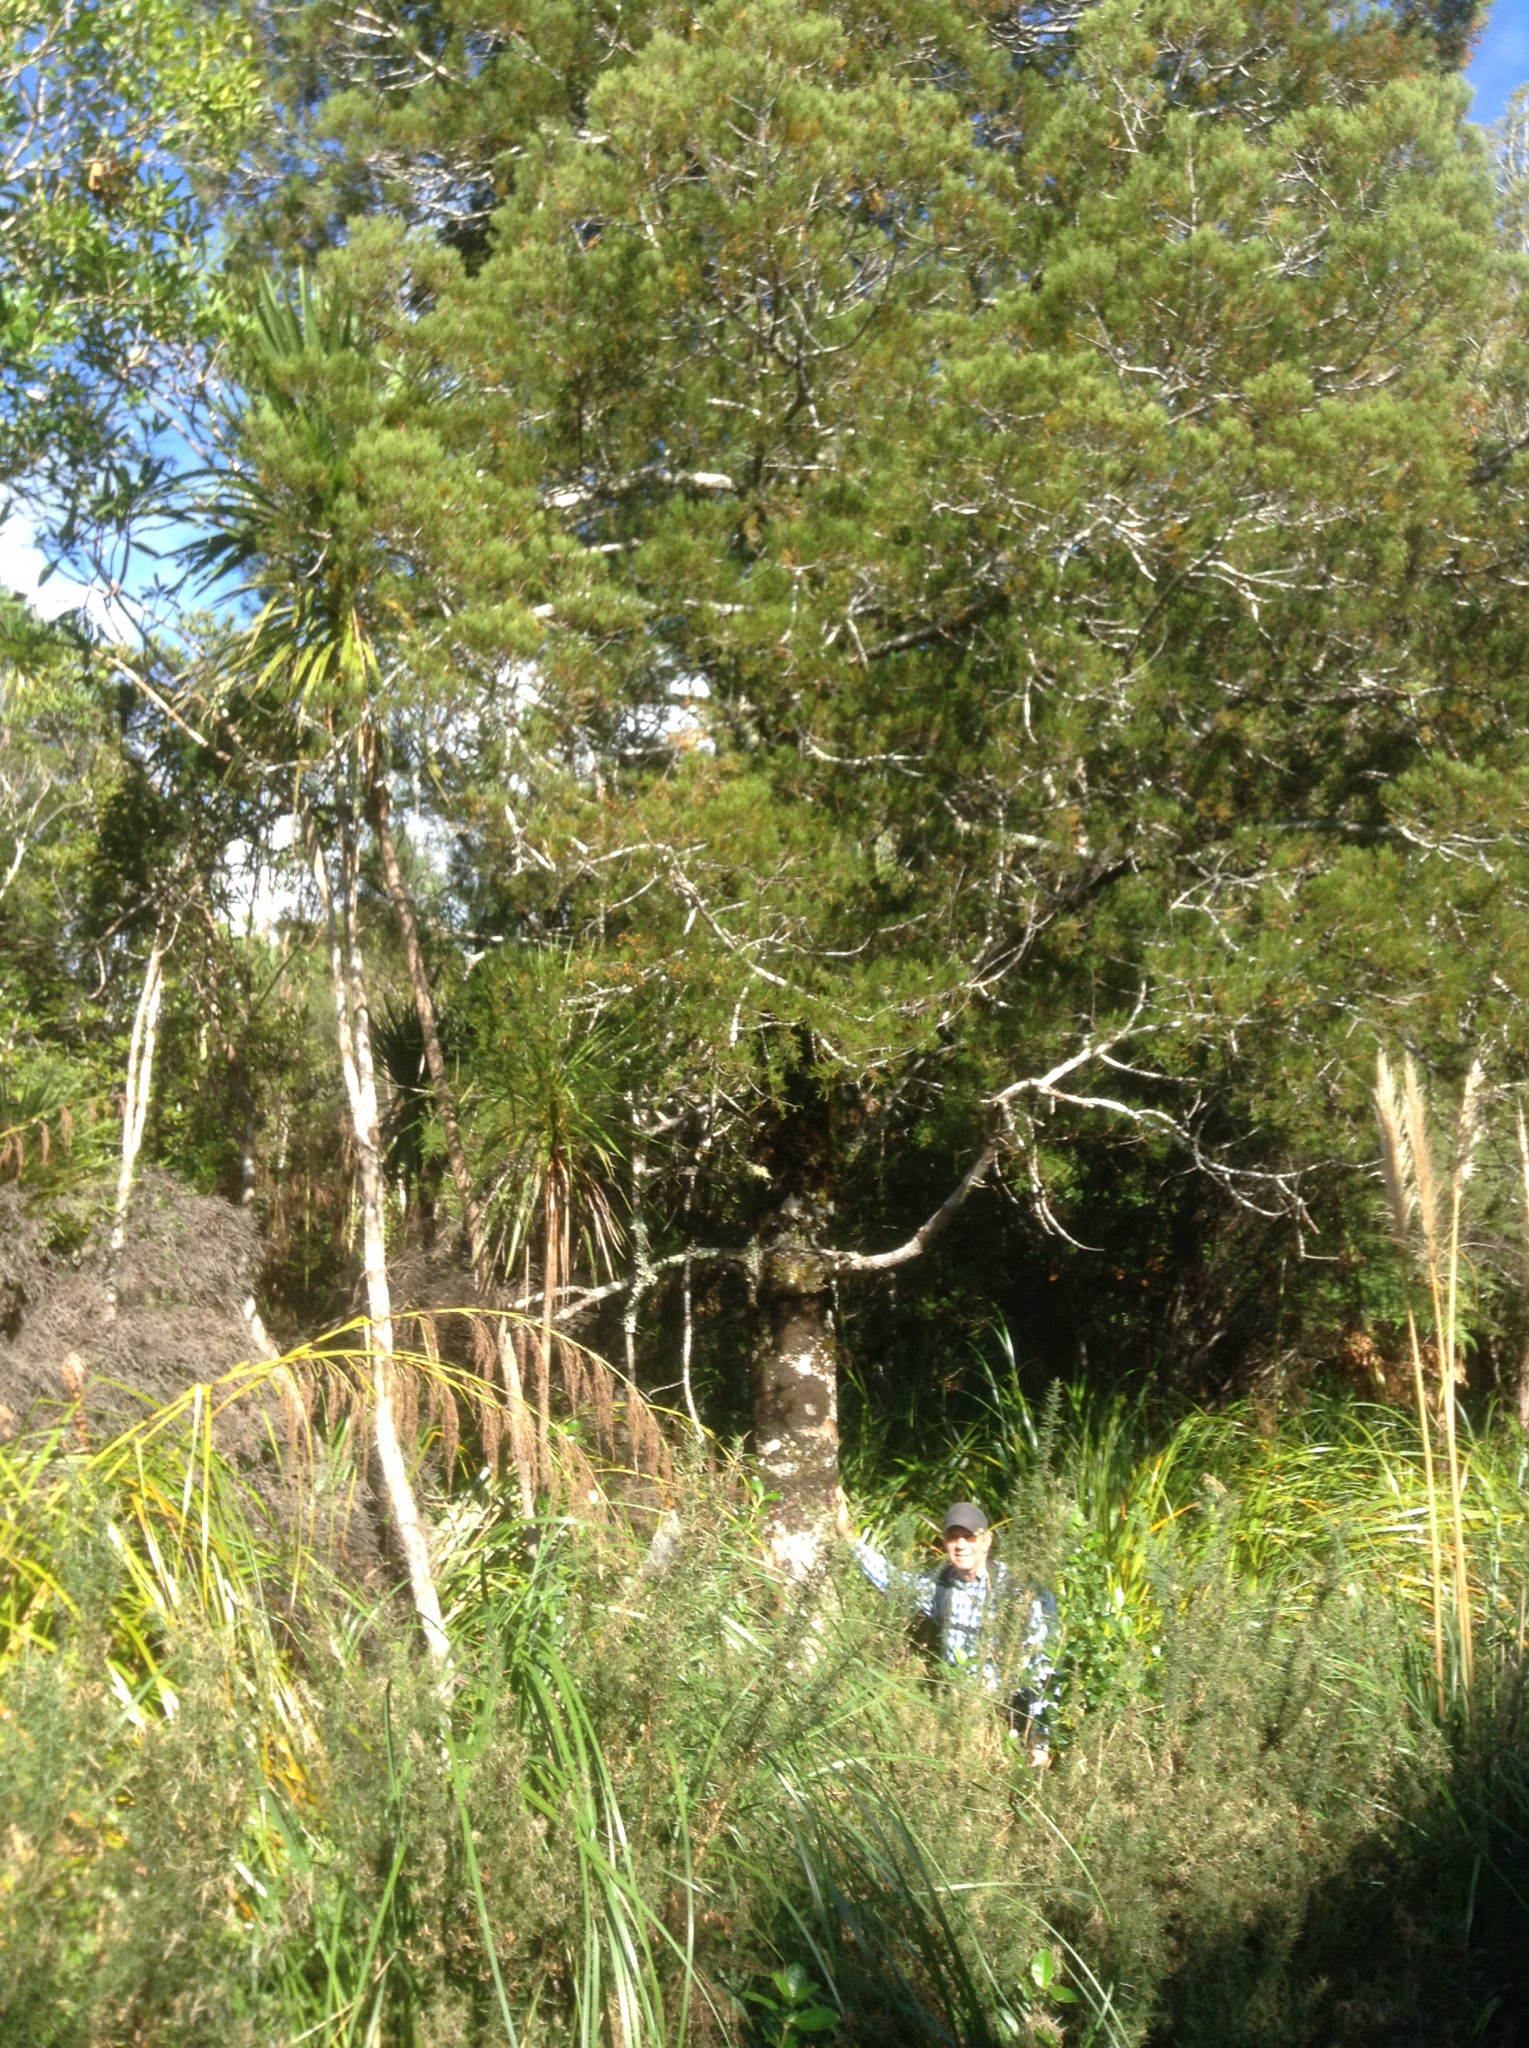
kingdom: Plantae
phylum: Tracheophyta
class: Pinopsida
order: Pinales
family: Podocarpaceae
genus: Dacrycarpus
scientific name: Dacrycarpus dacrydioides
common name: White pine
